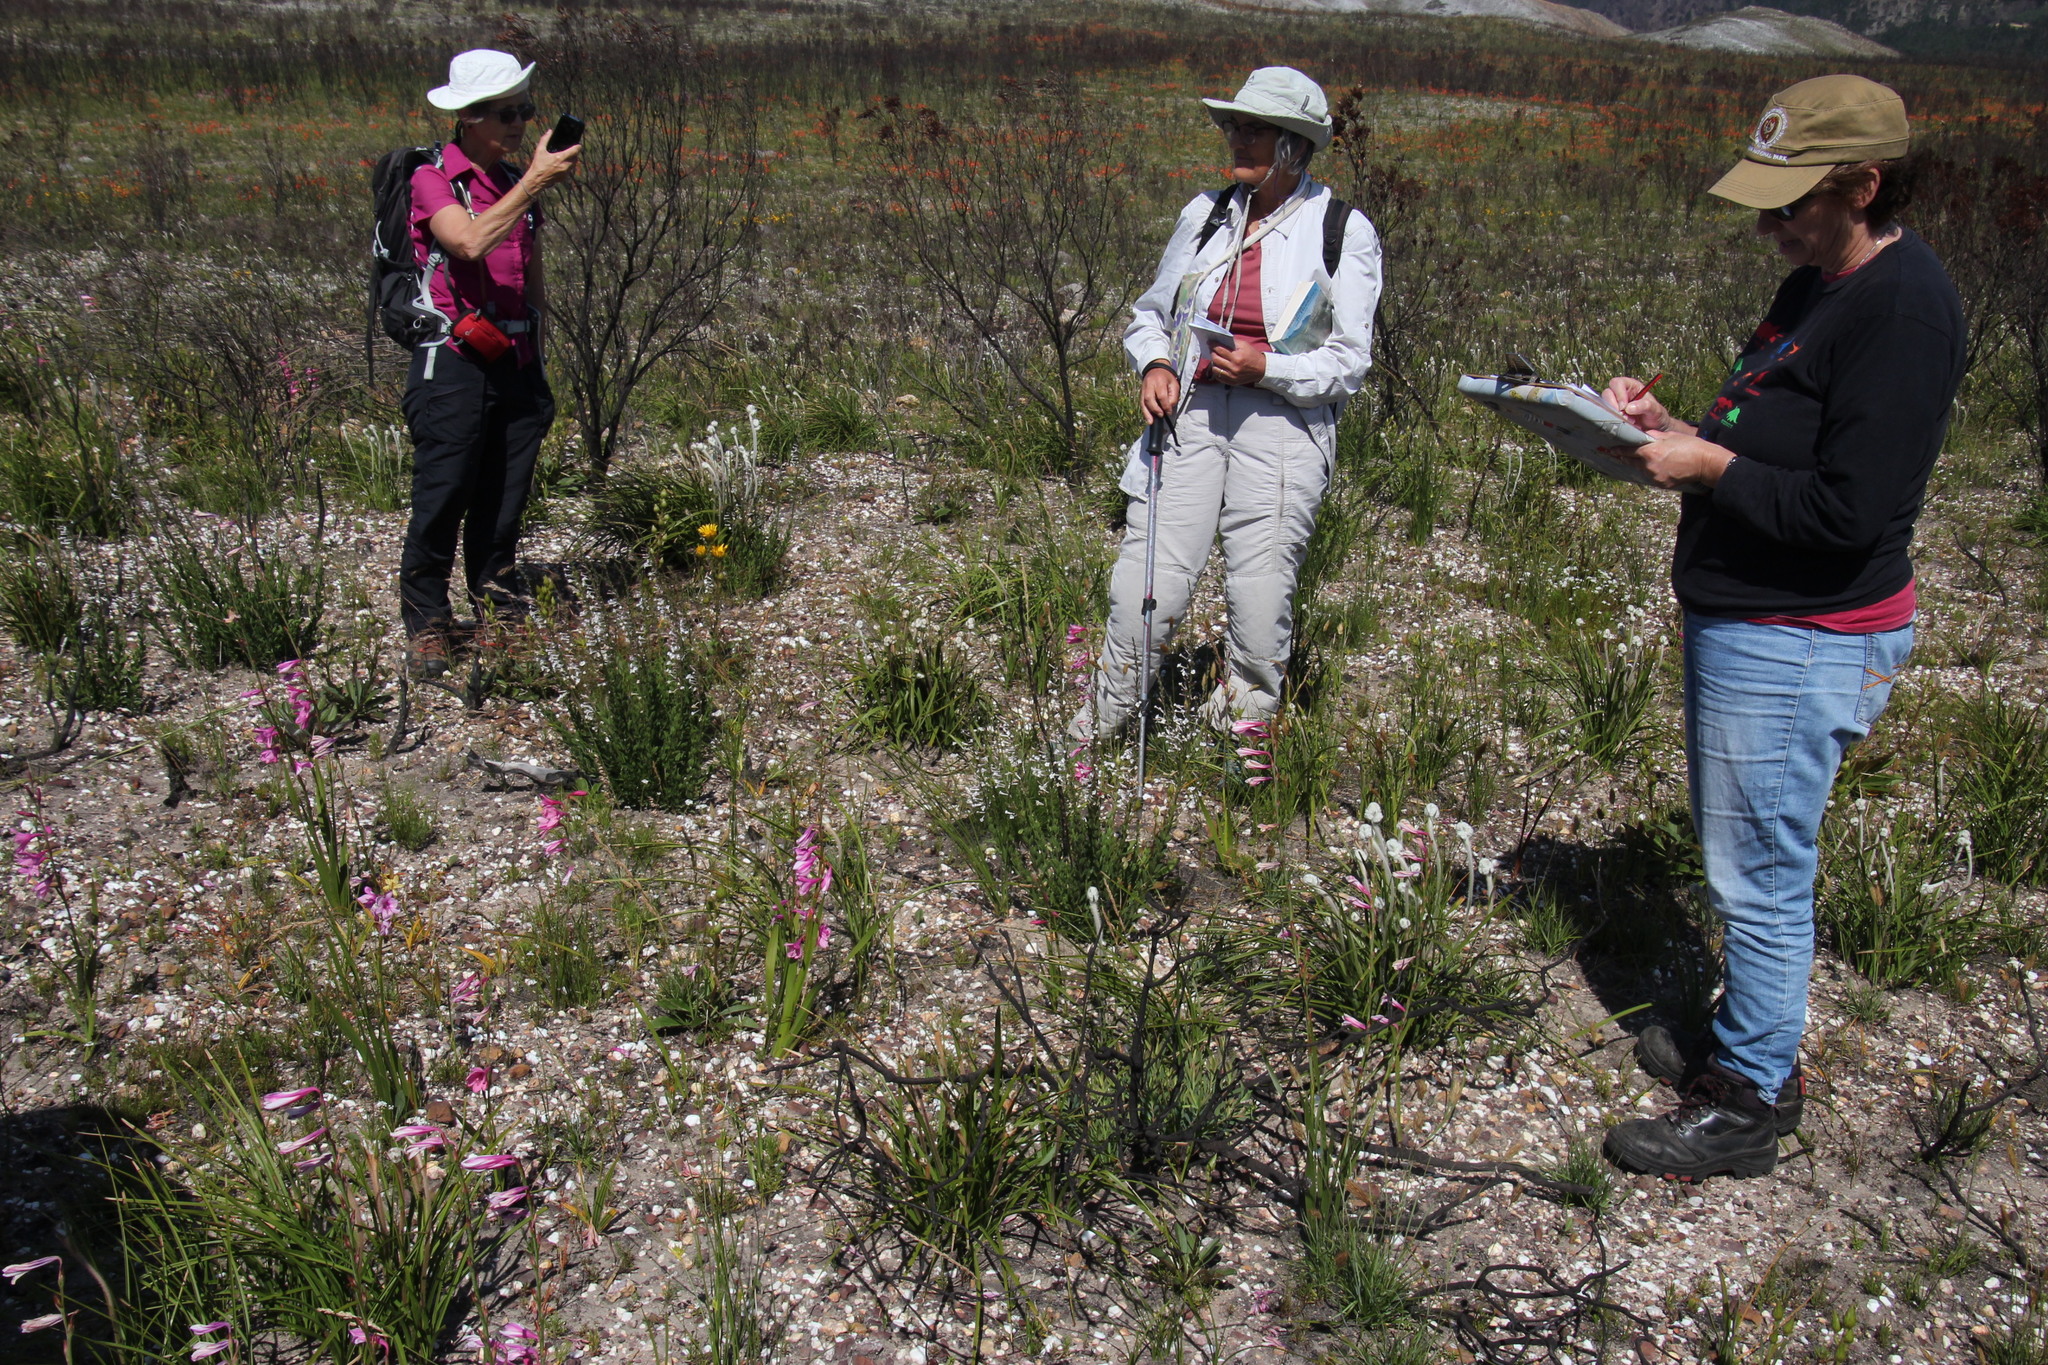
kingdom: Plantae
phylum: Tracheophyta
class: Magnoliopsida
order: Lamiales
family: Scrophulariaceae
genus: Freylinia
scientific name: Freylinia longiflora
